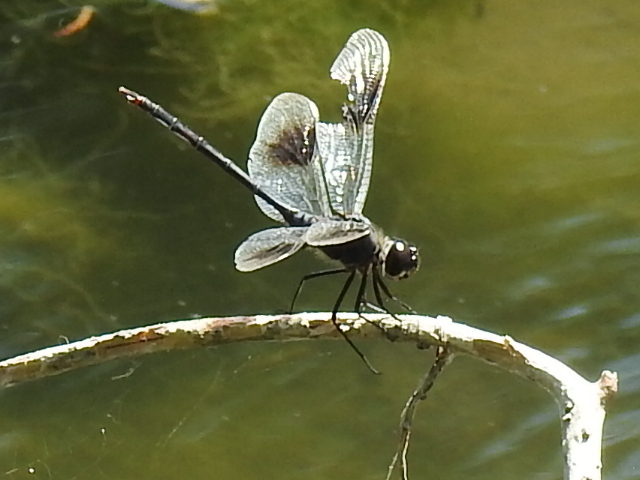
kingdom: Animalia
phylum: Arthropoda
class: Insecta
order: Odonata
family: Libellulidae
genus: Brachymesia
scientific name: Brachymesia gravida
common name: Four-spotted pennant
